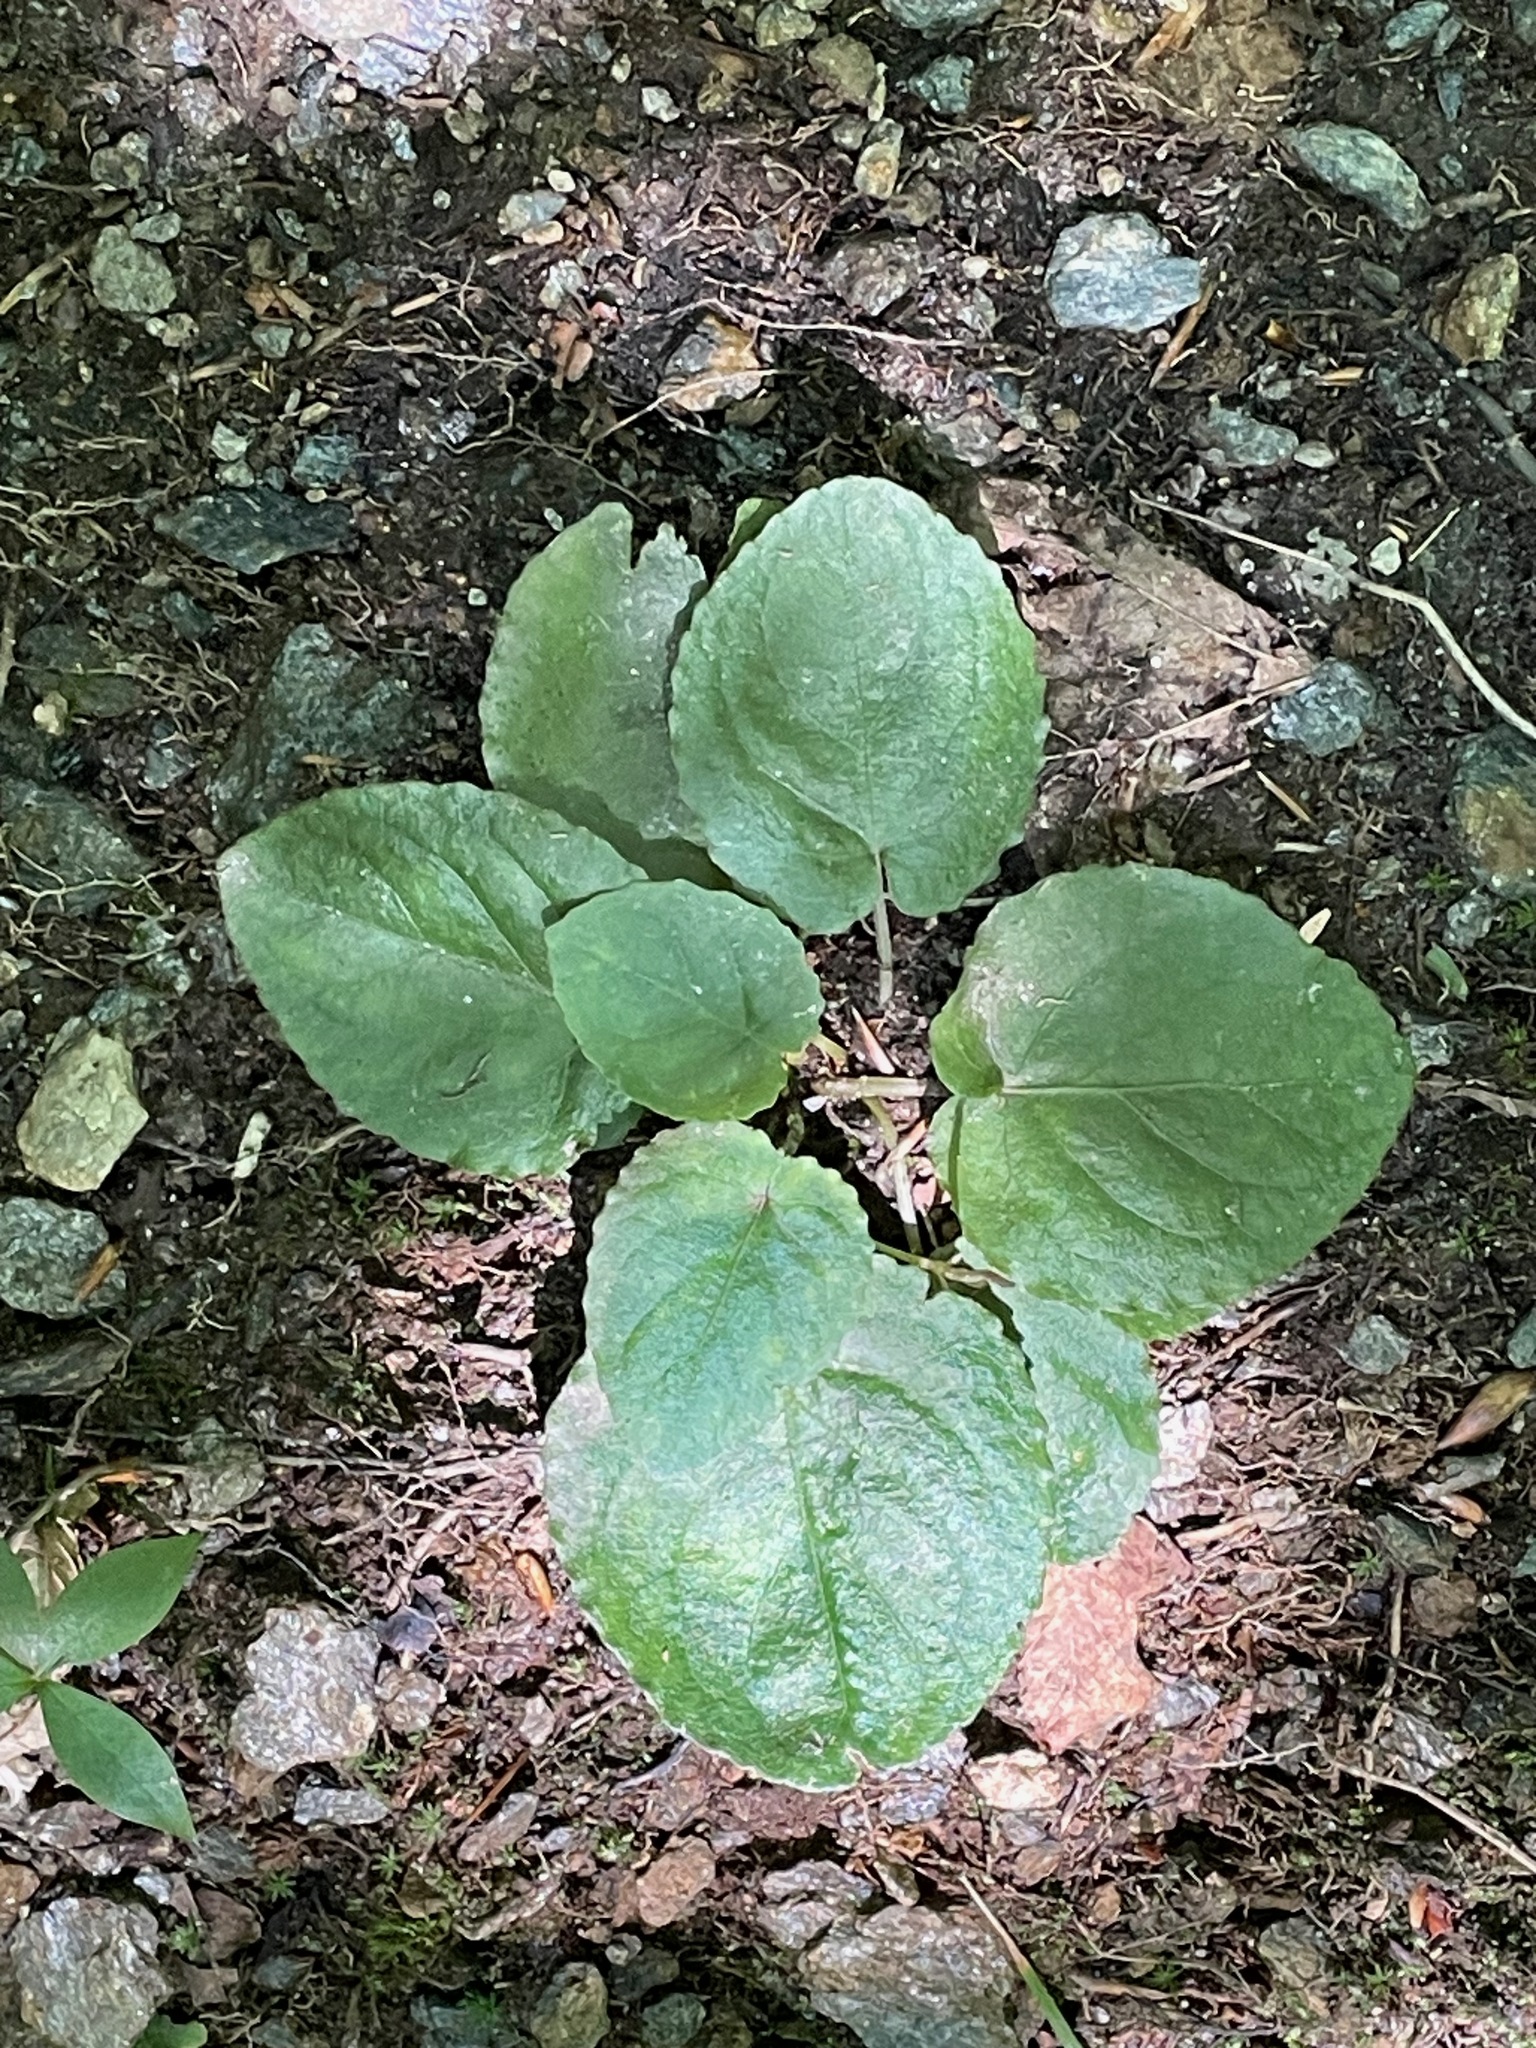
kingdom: Plantae
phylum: Tracheophyta
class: Magnoliopsida
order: Malpighiales
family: Violaceae
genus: Viola
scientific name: Viola rotundifolia
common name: Early yellow violet
